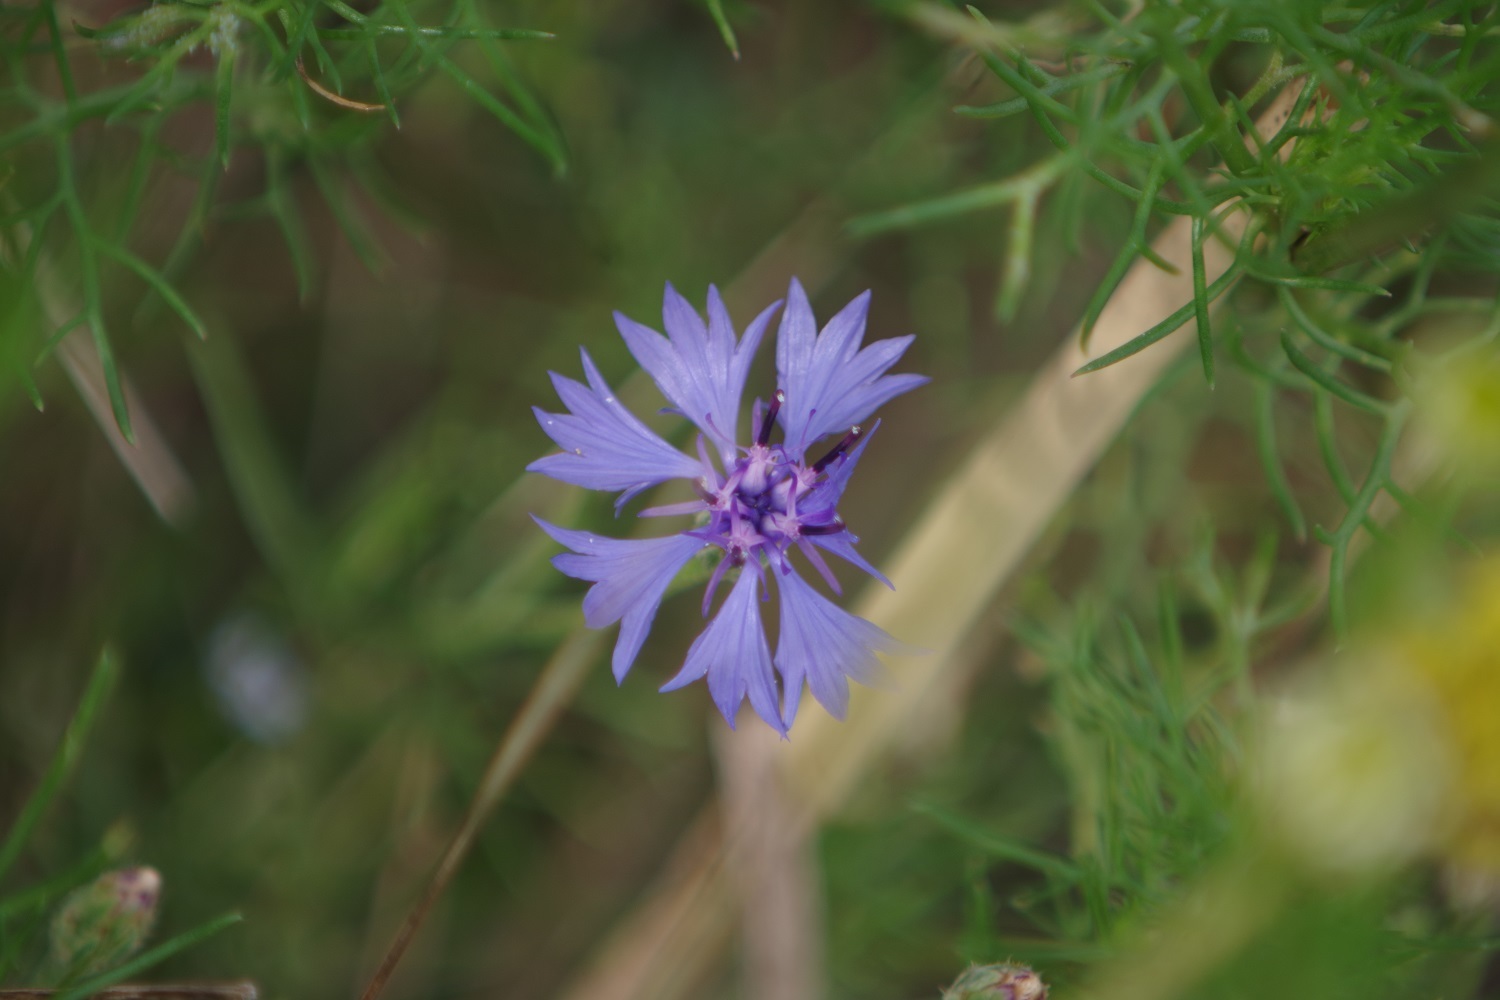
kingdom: Plantae
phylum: Tracheophyta
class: Magnoliopsida
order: Asterales
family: Asteraceae
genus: Centaurea
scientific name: Centaurea cyanus
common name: Cornflower
